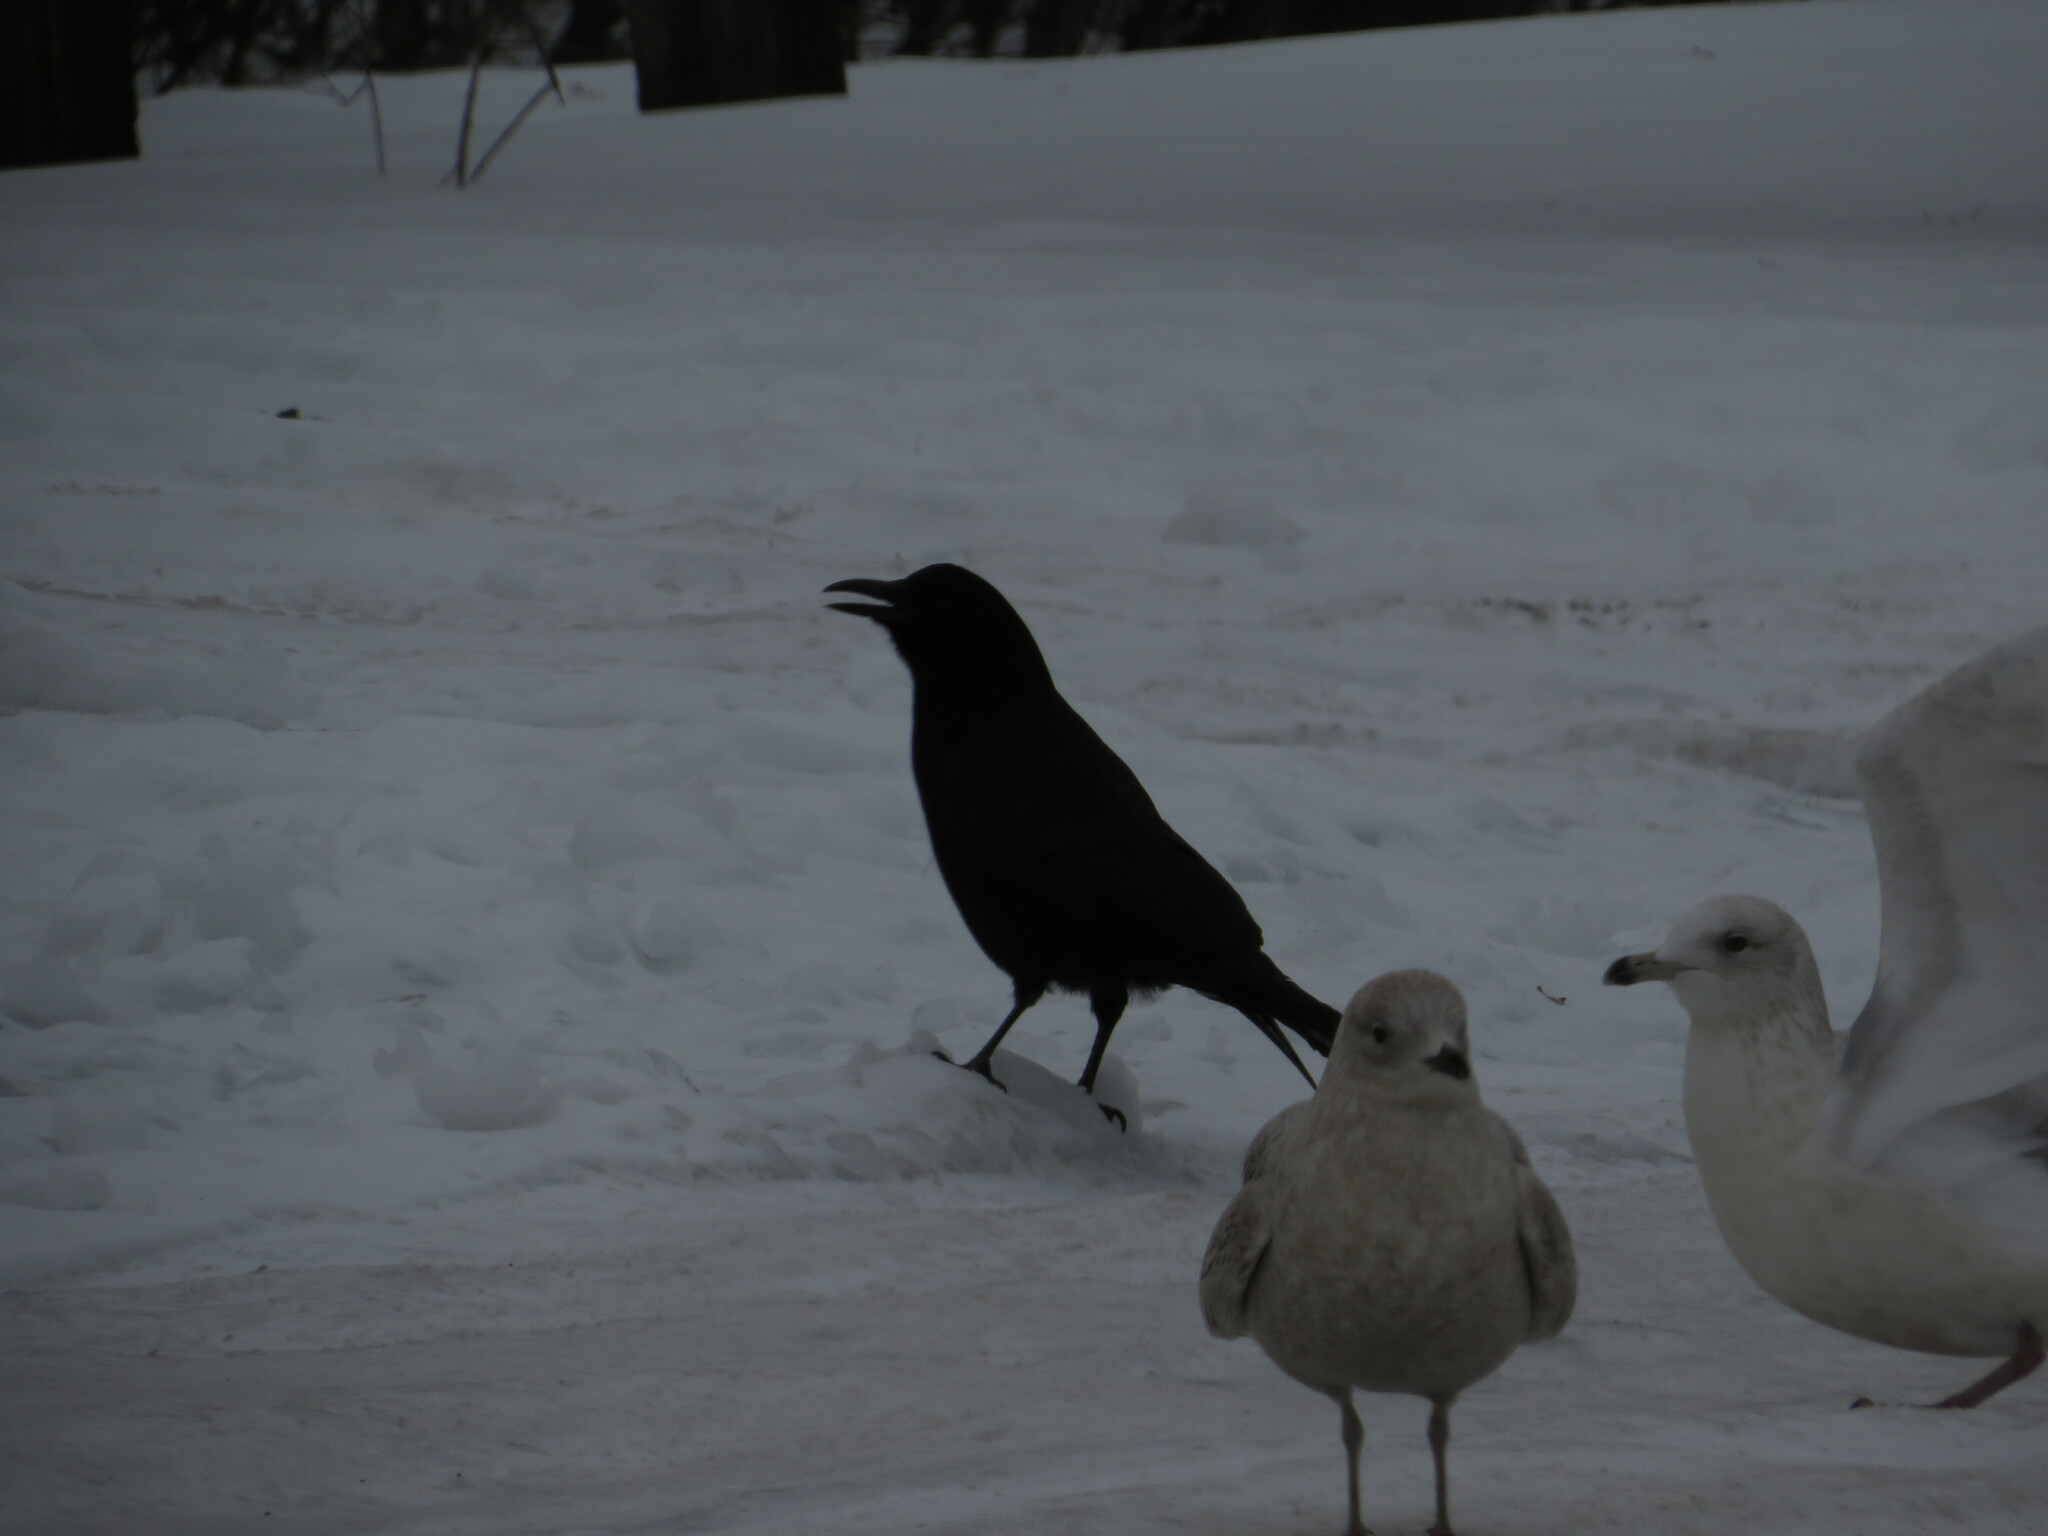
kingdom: Animalia
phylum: Chordata
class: Aves
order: Passeriformes
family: Corvidae
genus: Corvus
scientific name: Corvus brachyrhynchos
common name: American crow
